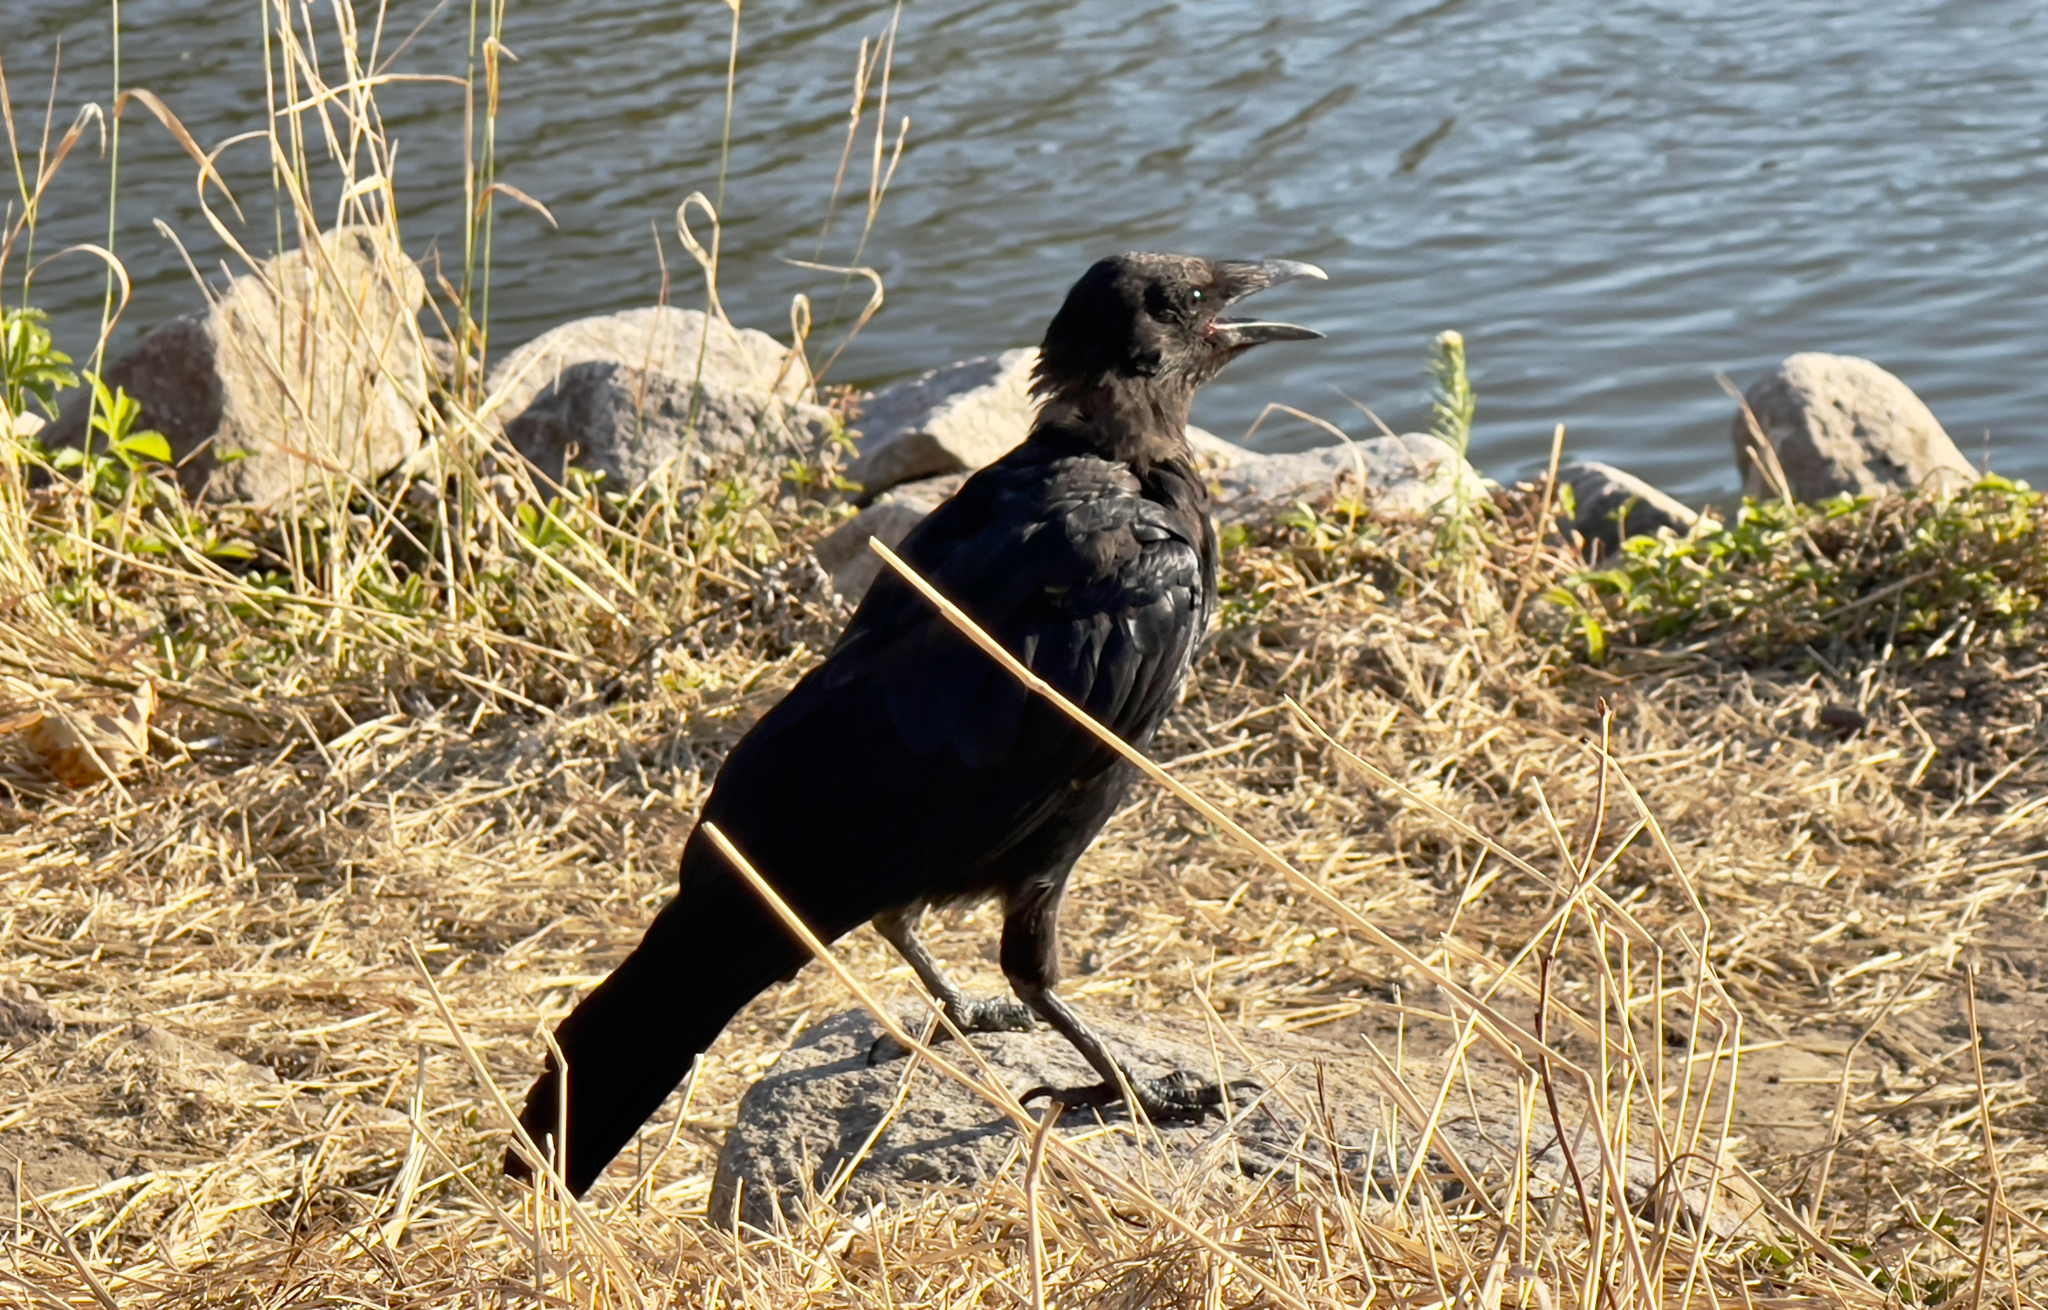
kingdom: Animalia
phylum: Chordata
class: Aves
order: Passeriformes
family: Corvidae
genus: Corvus
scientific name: Corvus corone
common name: Carrion crow
